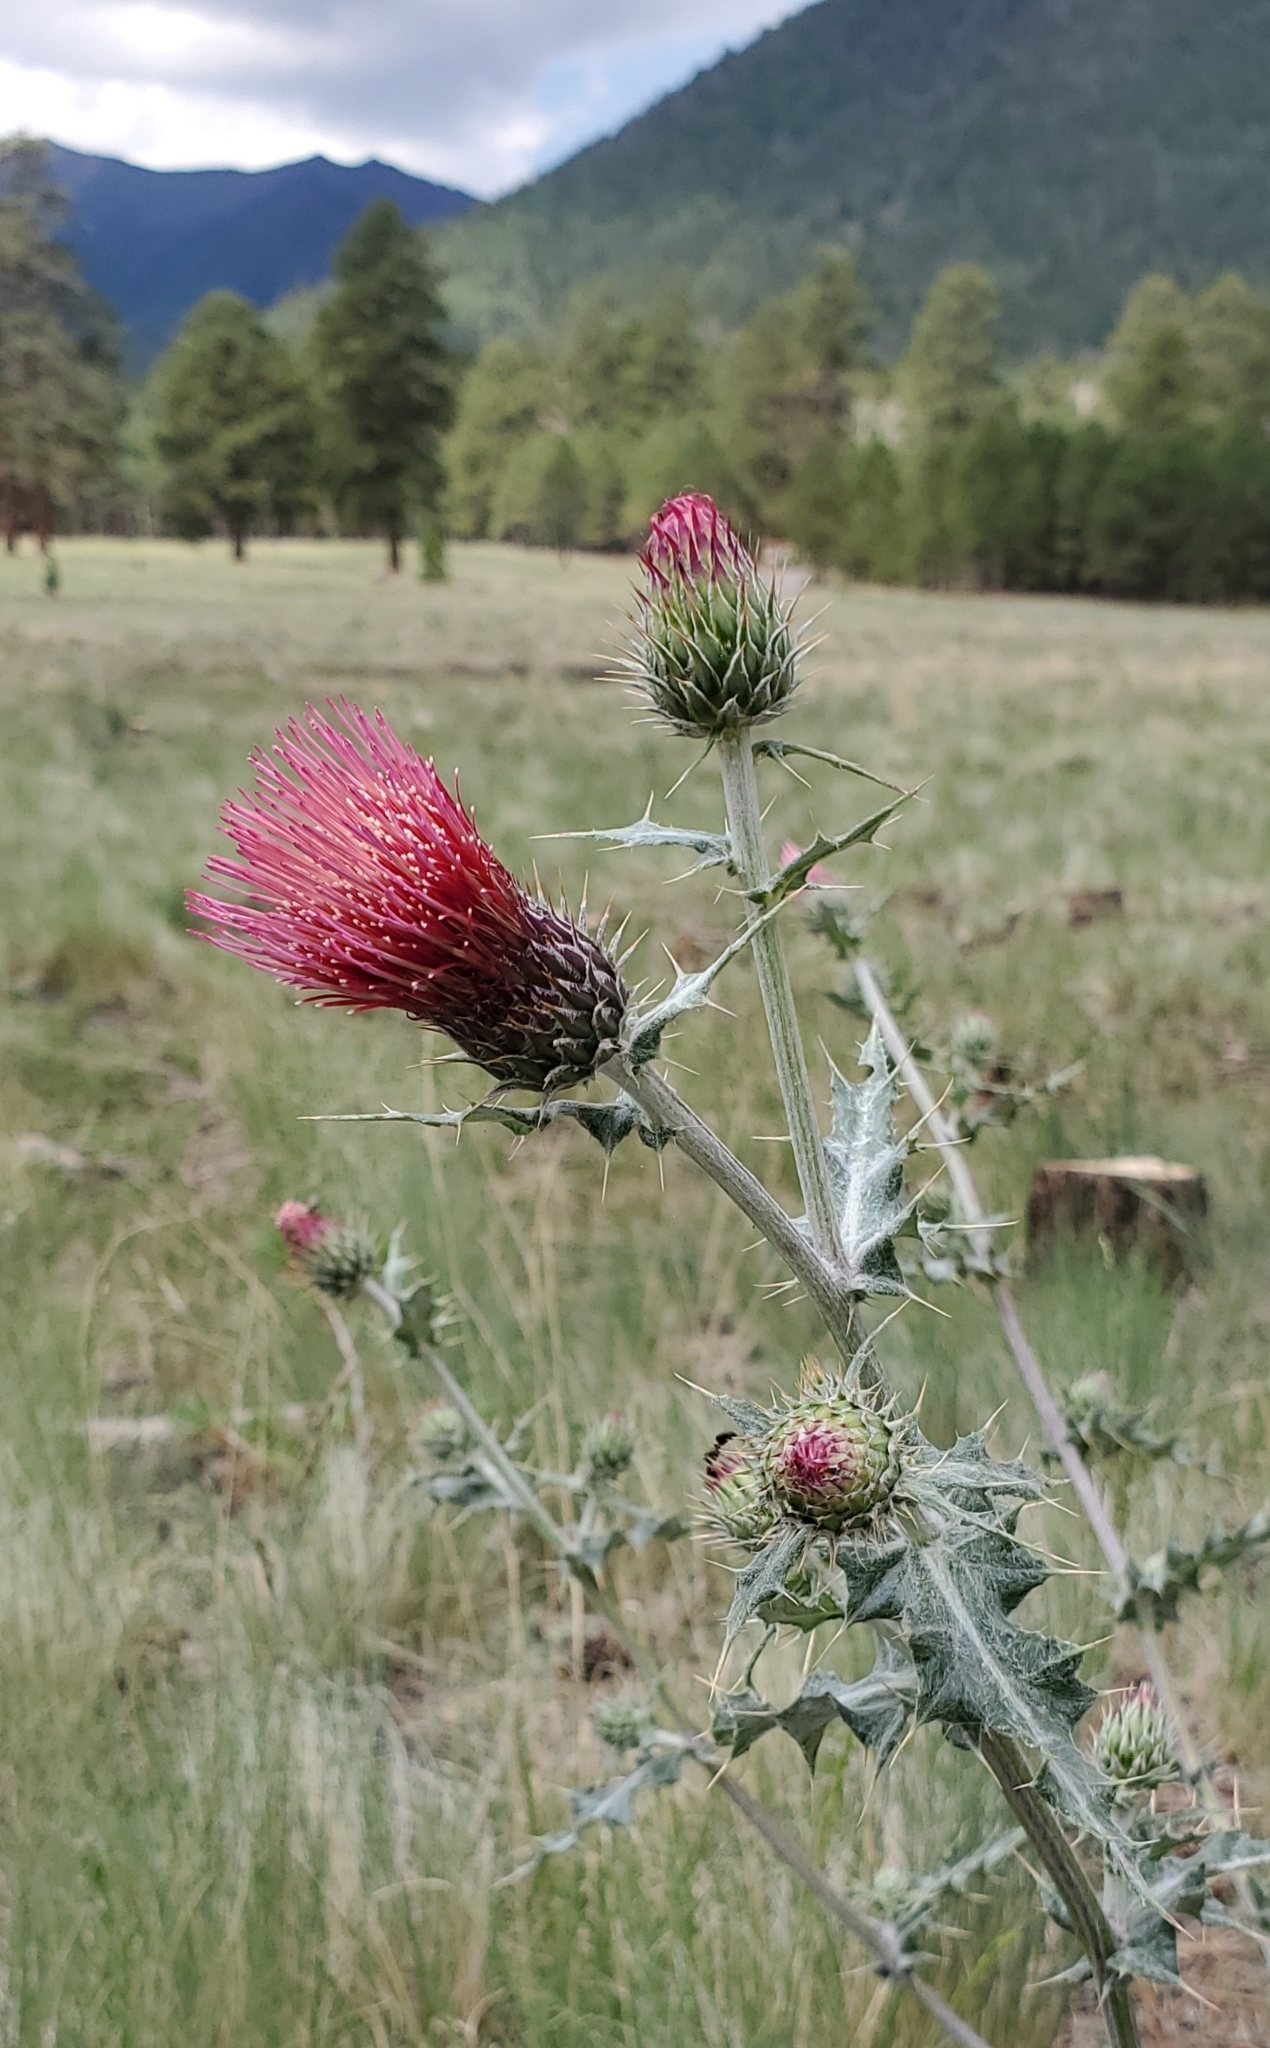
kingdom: Plantae
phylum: Tracheophyta
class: Magnoliopsida
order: Asterales
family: Asteraceae
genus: Cirsium
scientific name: Cirsium arizonicum
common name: Arizona thistle
